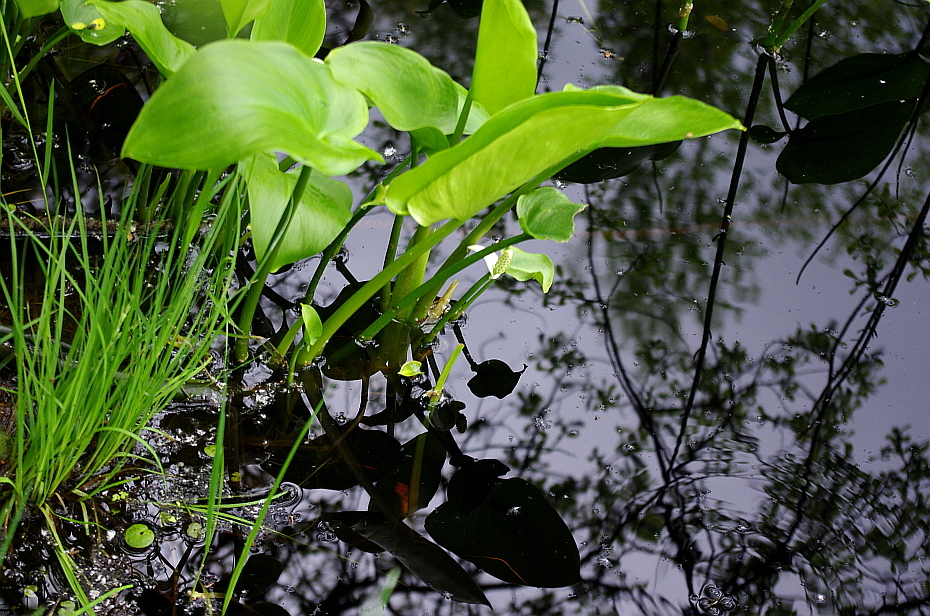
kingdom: Plantae
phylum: Tracheophyta
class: Liliopsida
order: Alismatales
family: Araceae
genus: Calla
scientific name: Calla palustris
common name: Bog arum
